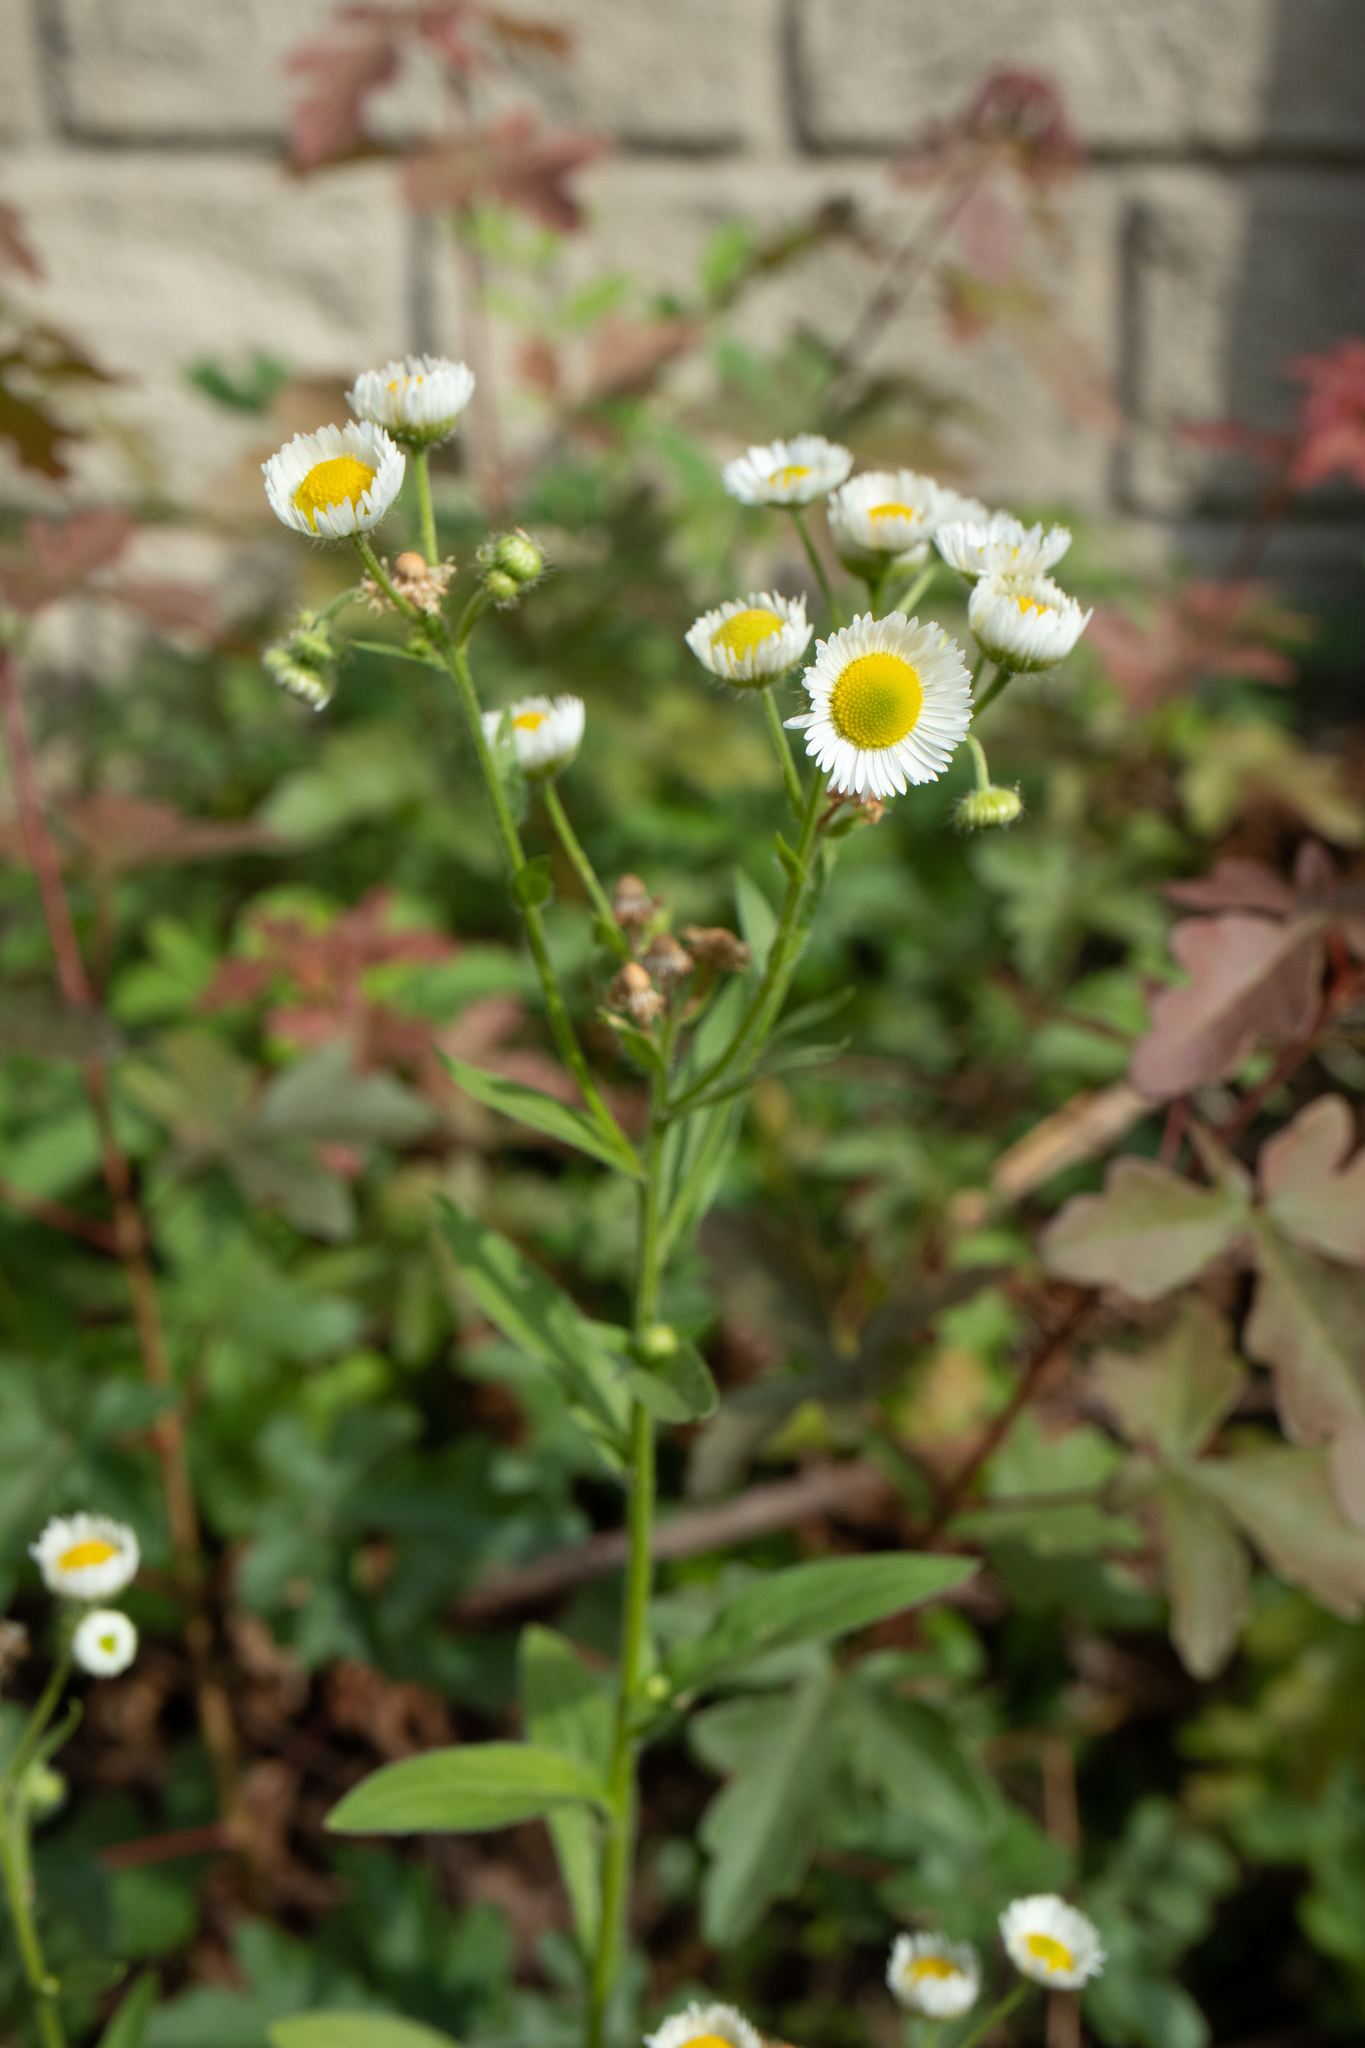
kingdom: Plantae
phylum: Tracheophyta
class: Magnoliopsida
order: Asterales
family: Asteraceae
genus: Erigeron
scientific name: Erigeron annuus
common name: Tall fleabane
